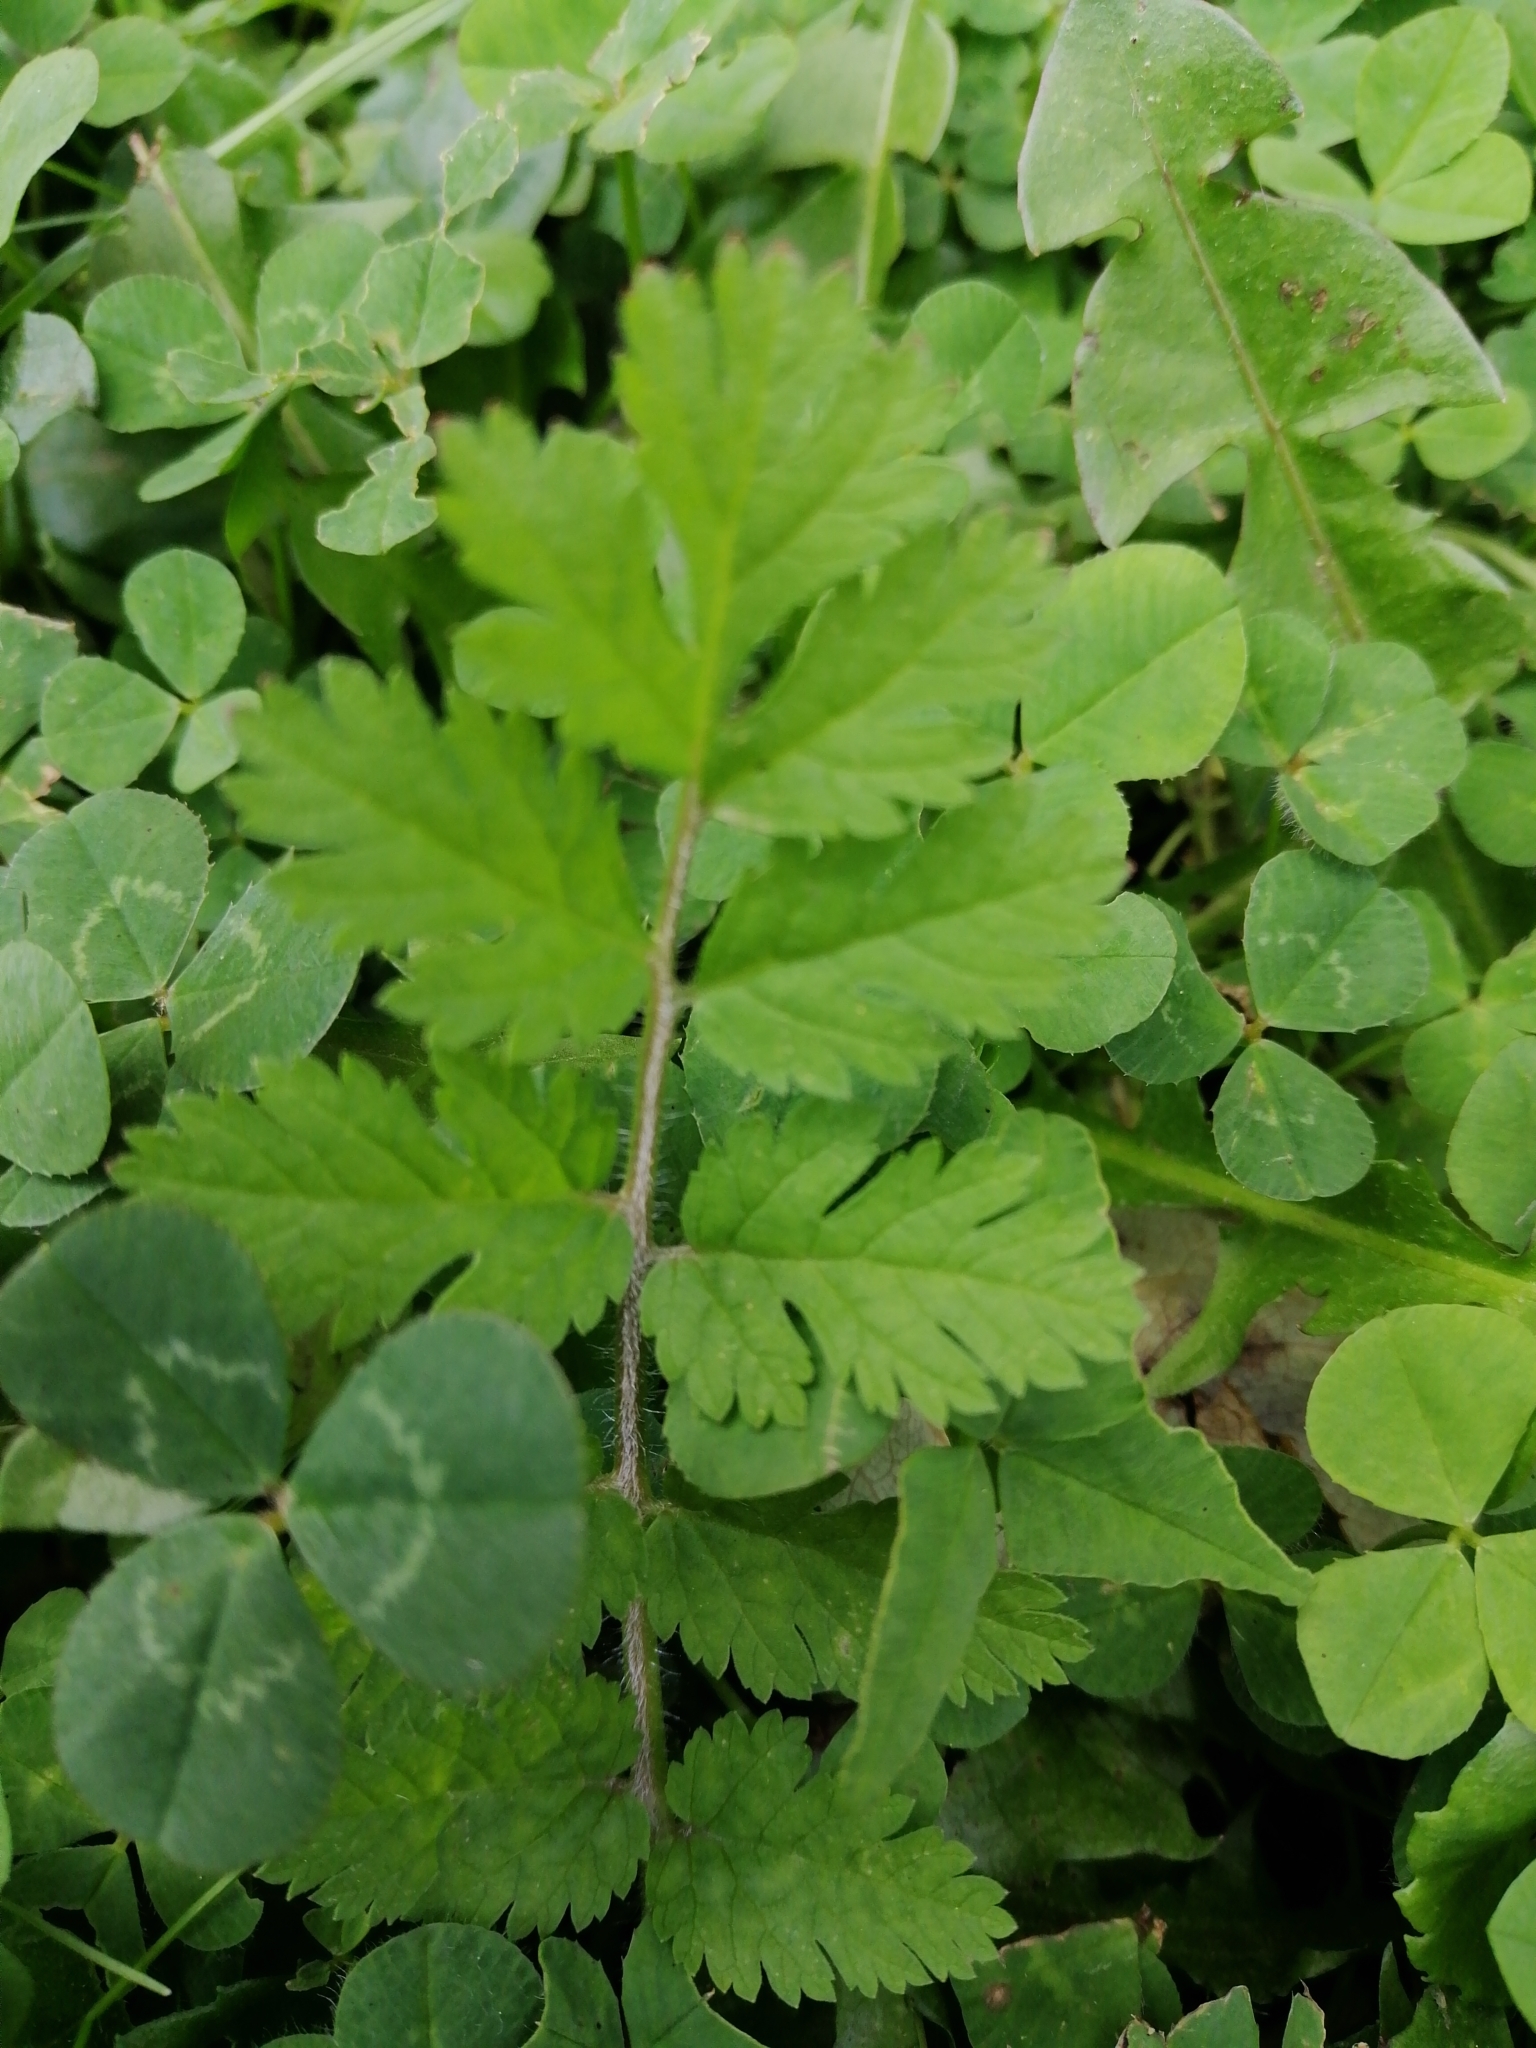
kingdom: Plantae
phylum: Tracheophyta
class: Magnoliopsida
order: Geraniales
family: Geraniaceae
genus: Erodium
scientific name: Erodium moschatum
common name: Musk stork's-bill
